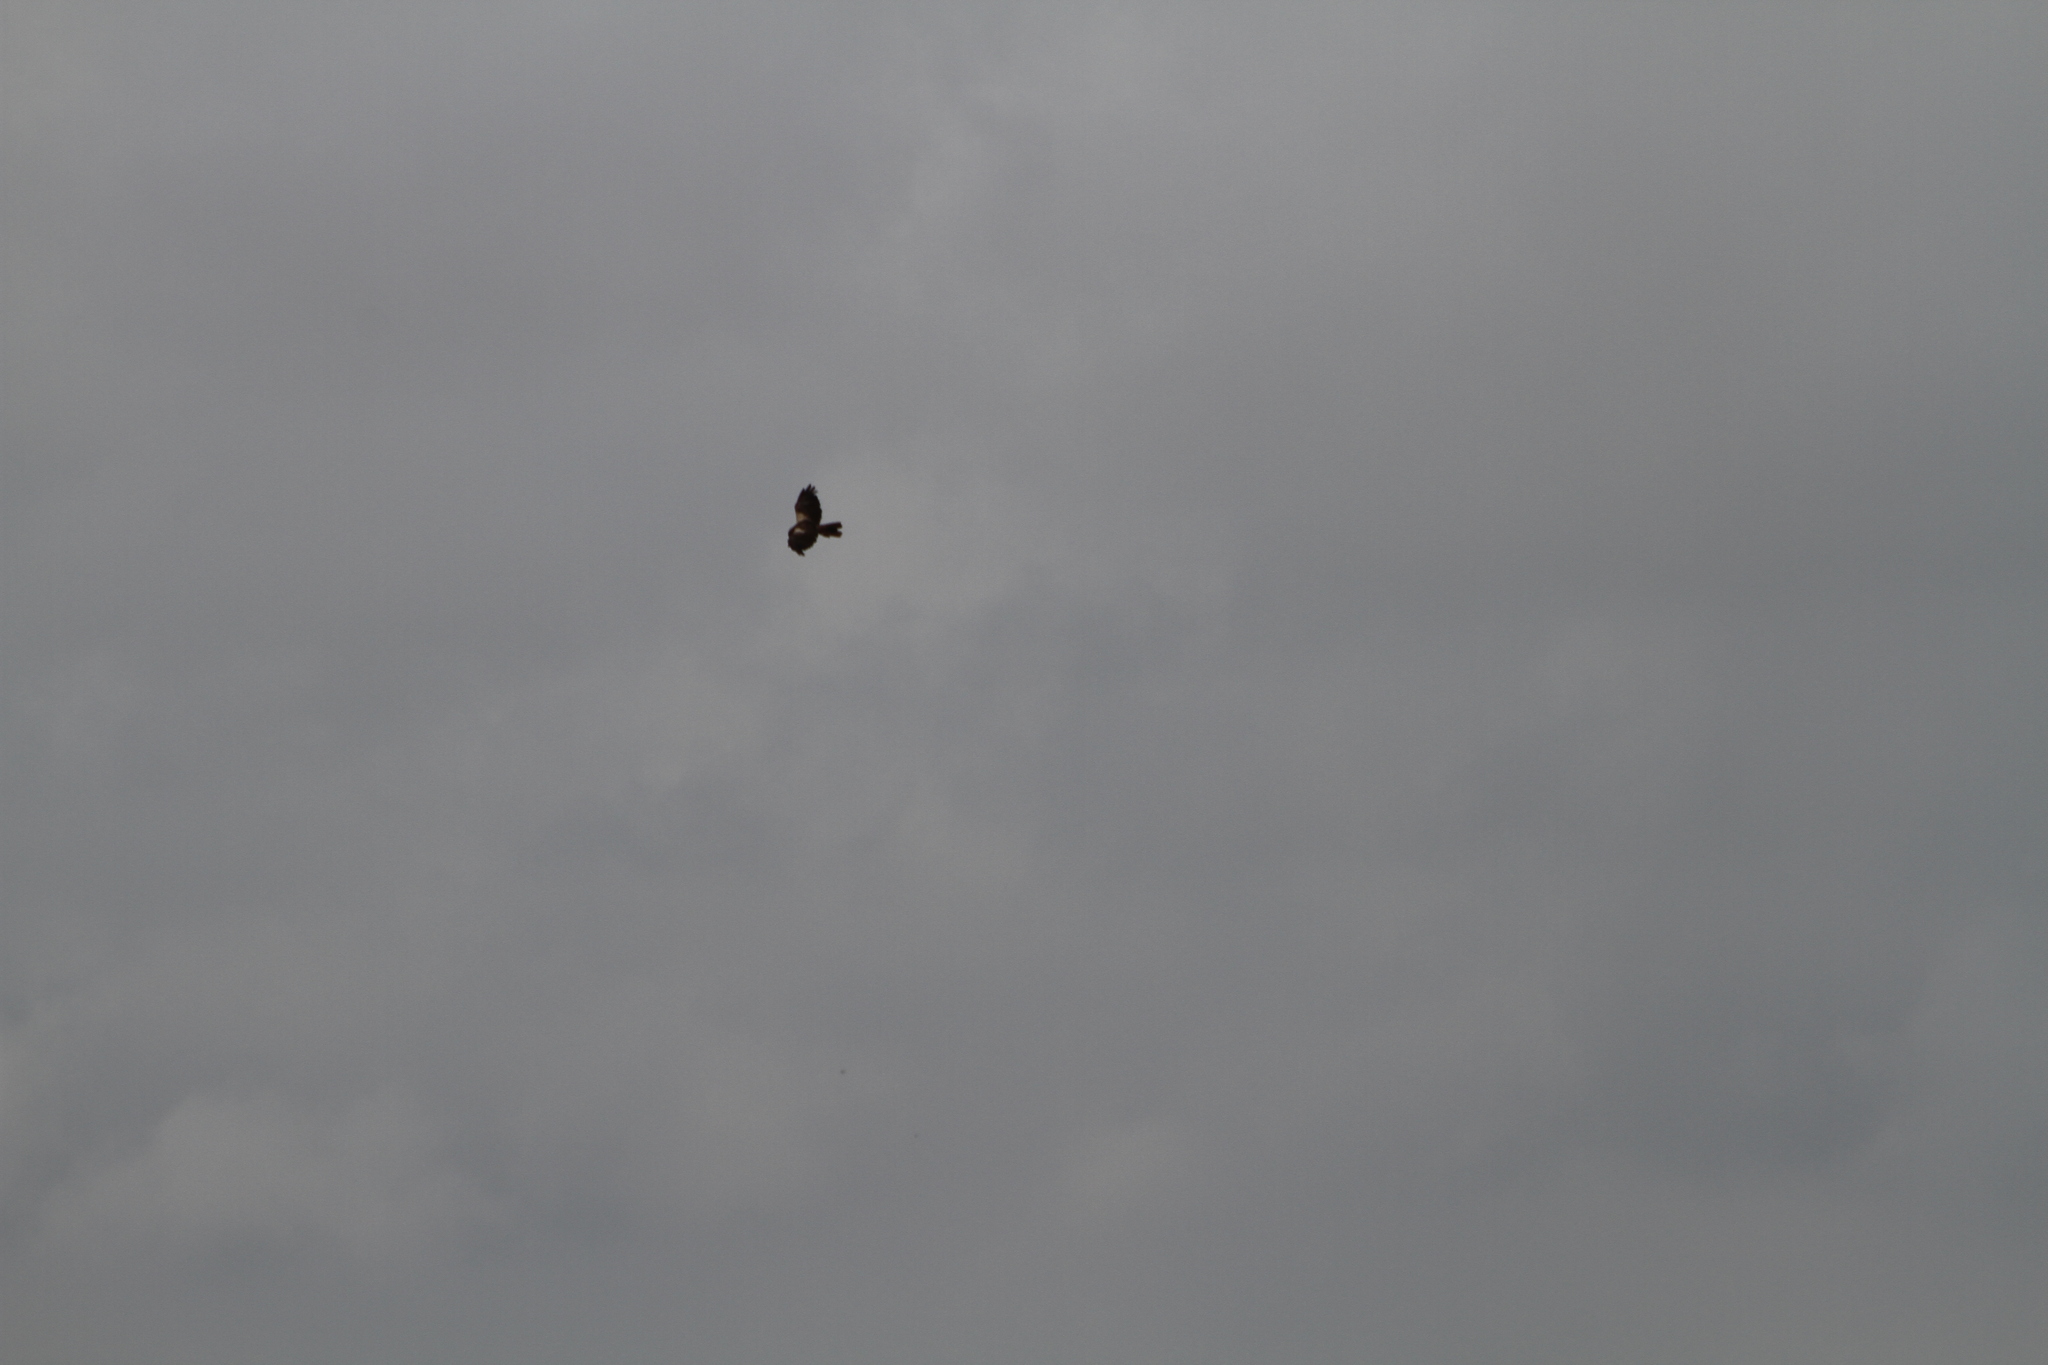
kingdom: Animalia
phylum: Chordata
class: Aves
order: Accipitriformes
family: Accipitridae
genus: Circus
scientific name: Circus aeruginosus
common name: Western marsh harrier
